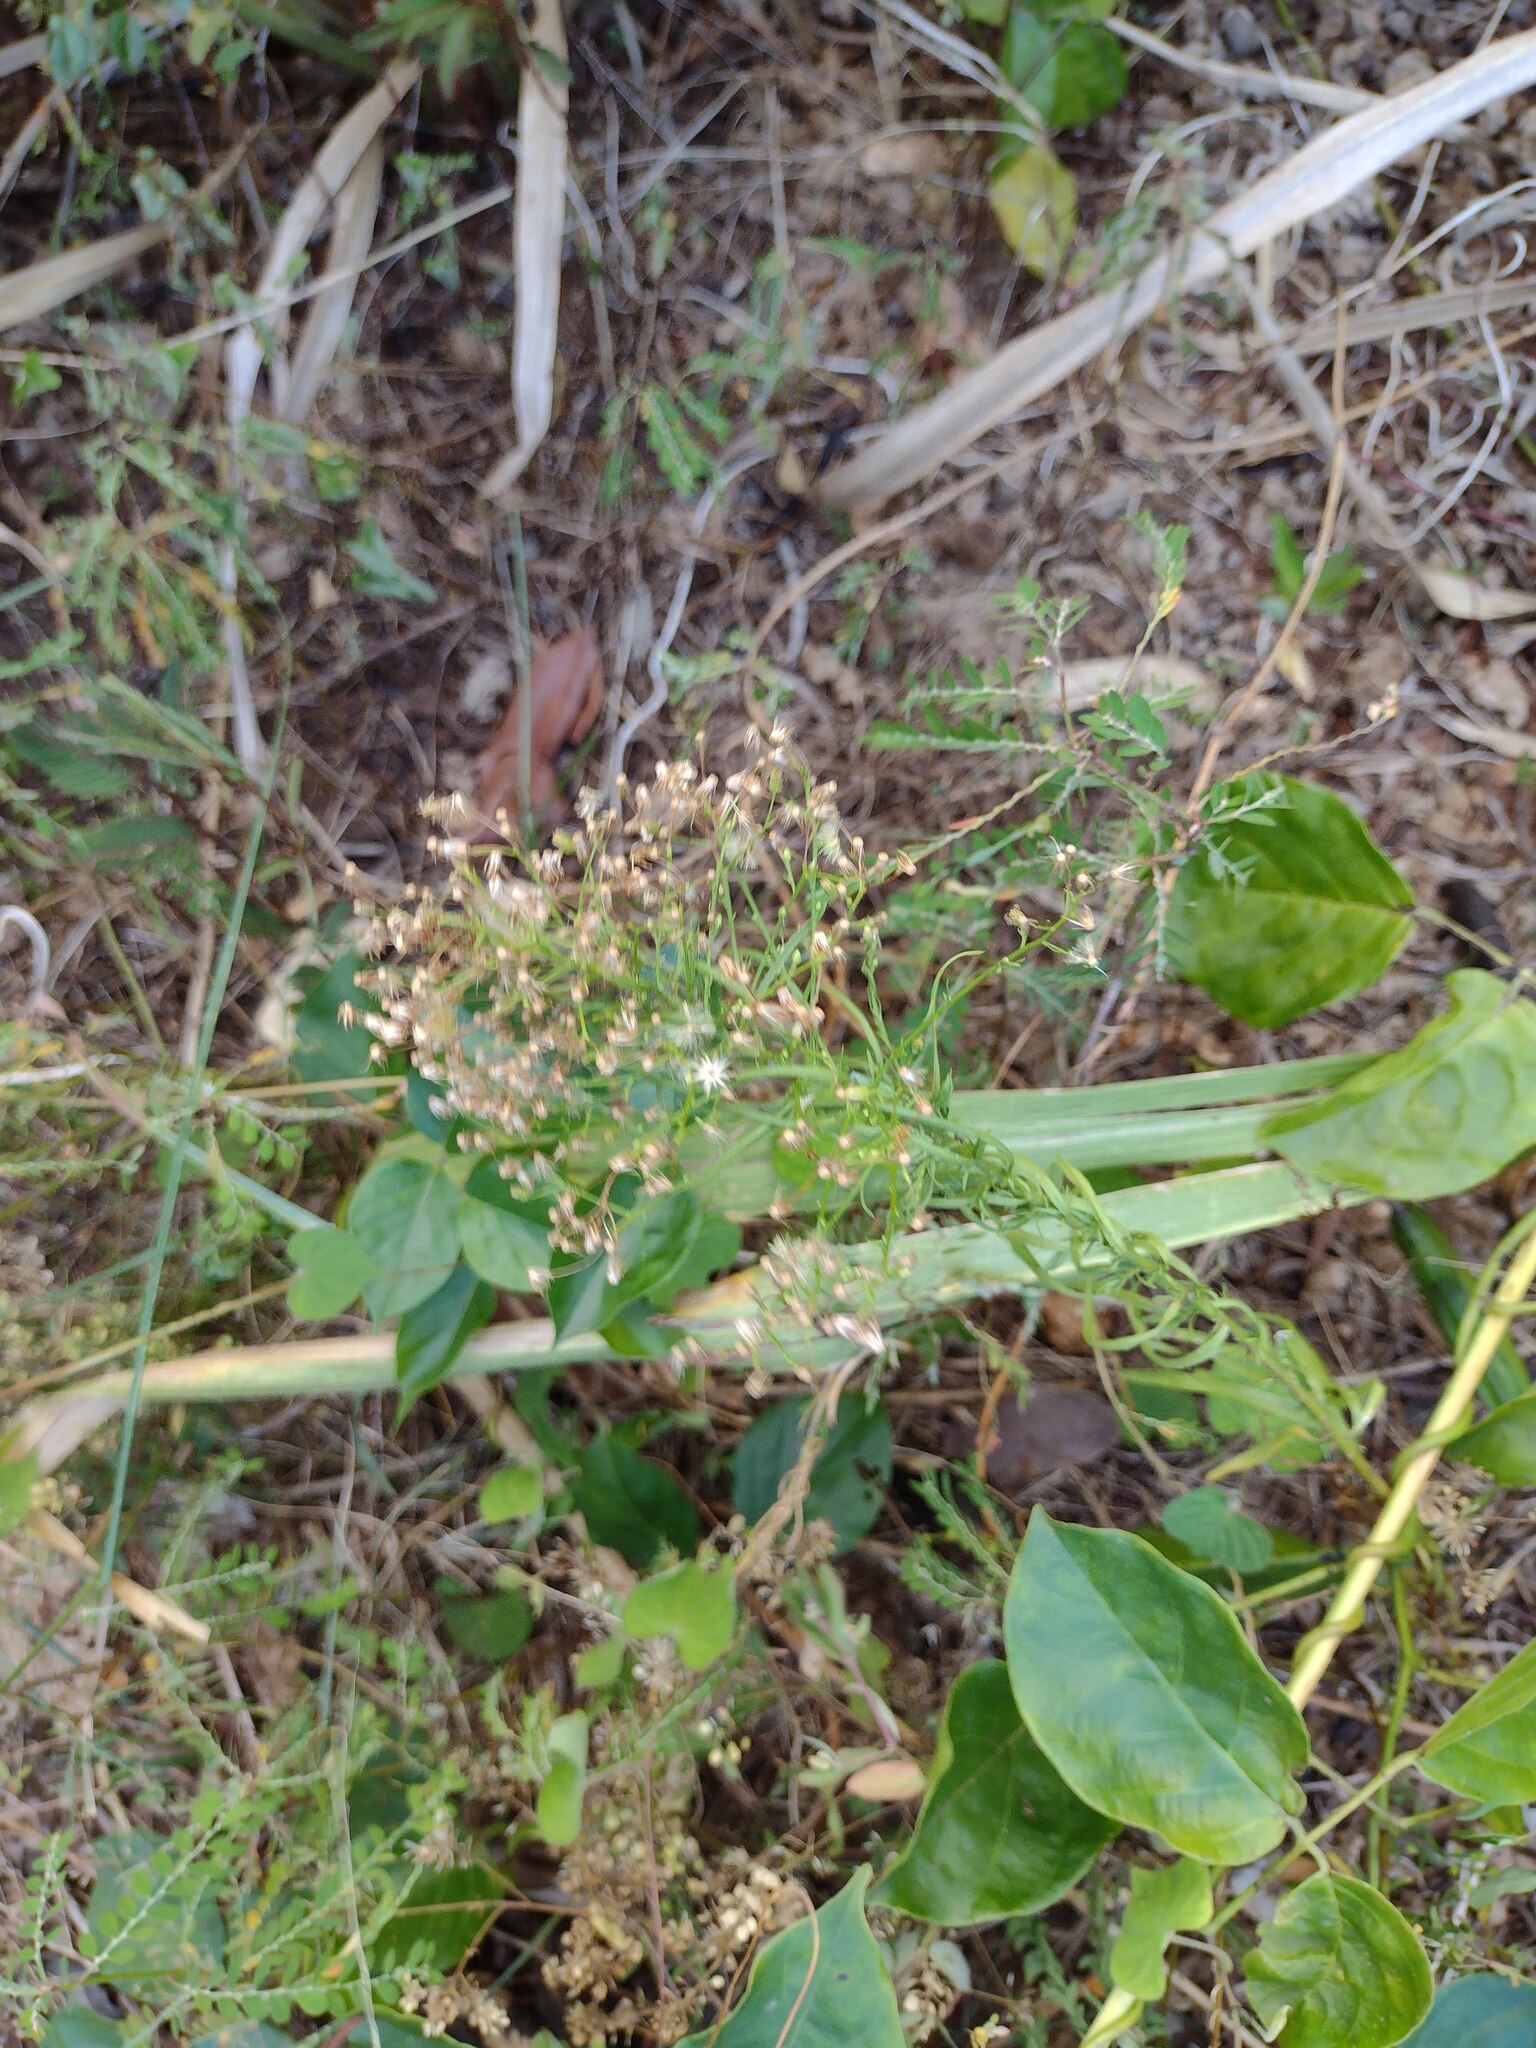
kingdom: Plantae
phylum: Tracheophyta
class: Magnoliopsida
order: Asterales
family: Asteraceae
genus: Erigeron
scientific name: Erigeron canadensis
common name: Canadian fleabane
